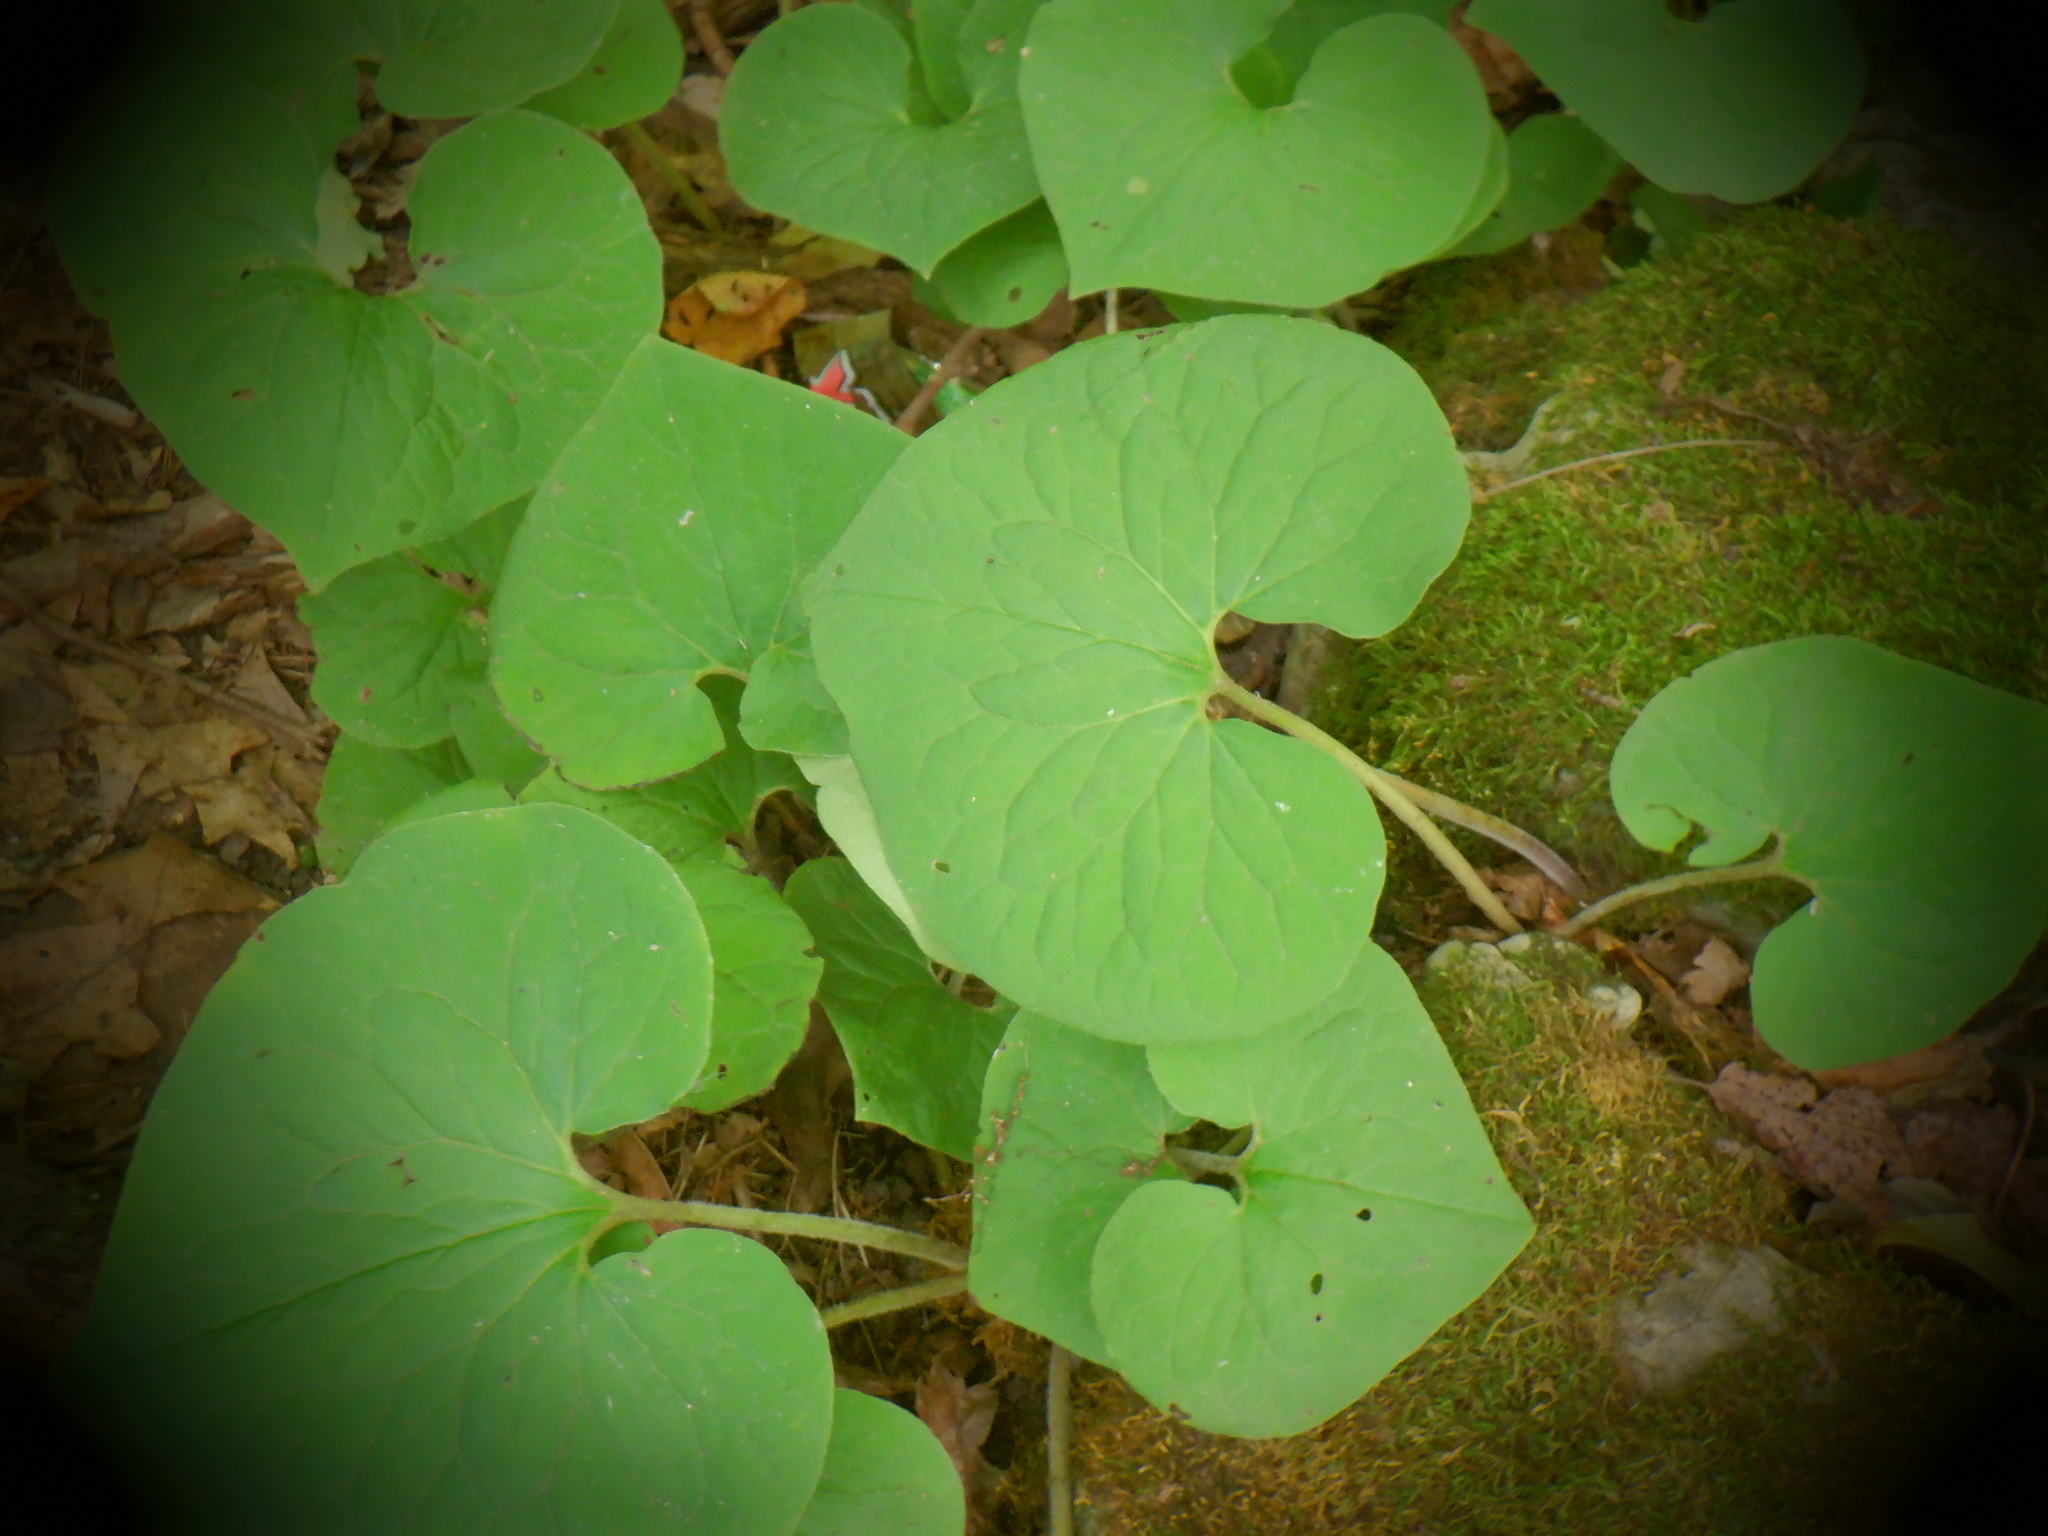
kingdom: Plantae
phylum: Tracheophyta
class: Magnoliopsida
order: Piperales
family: Aristolochiaceae
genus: Asarum
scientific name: Asarum canadense
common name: Wild ginger
